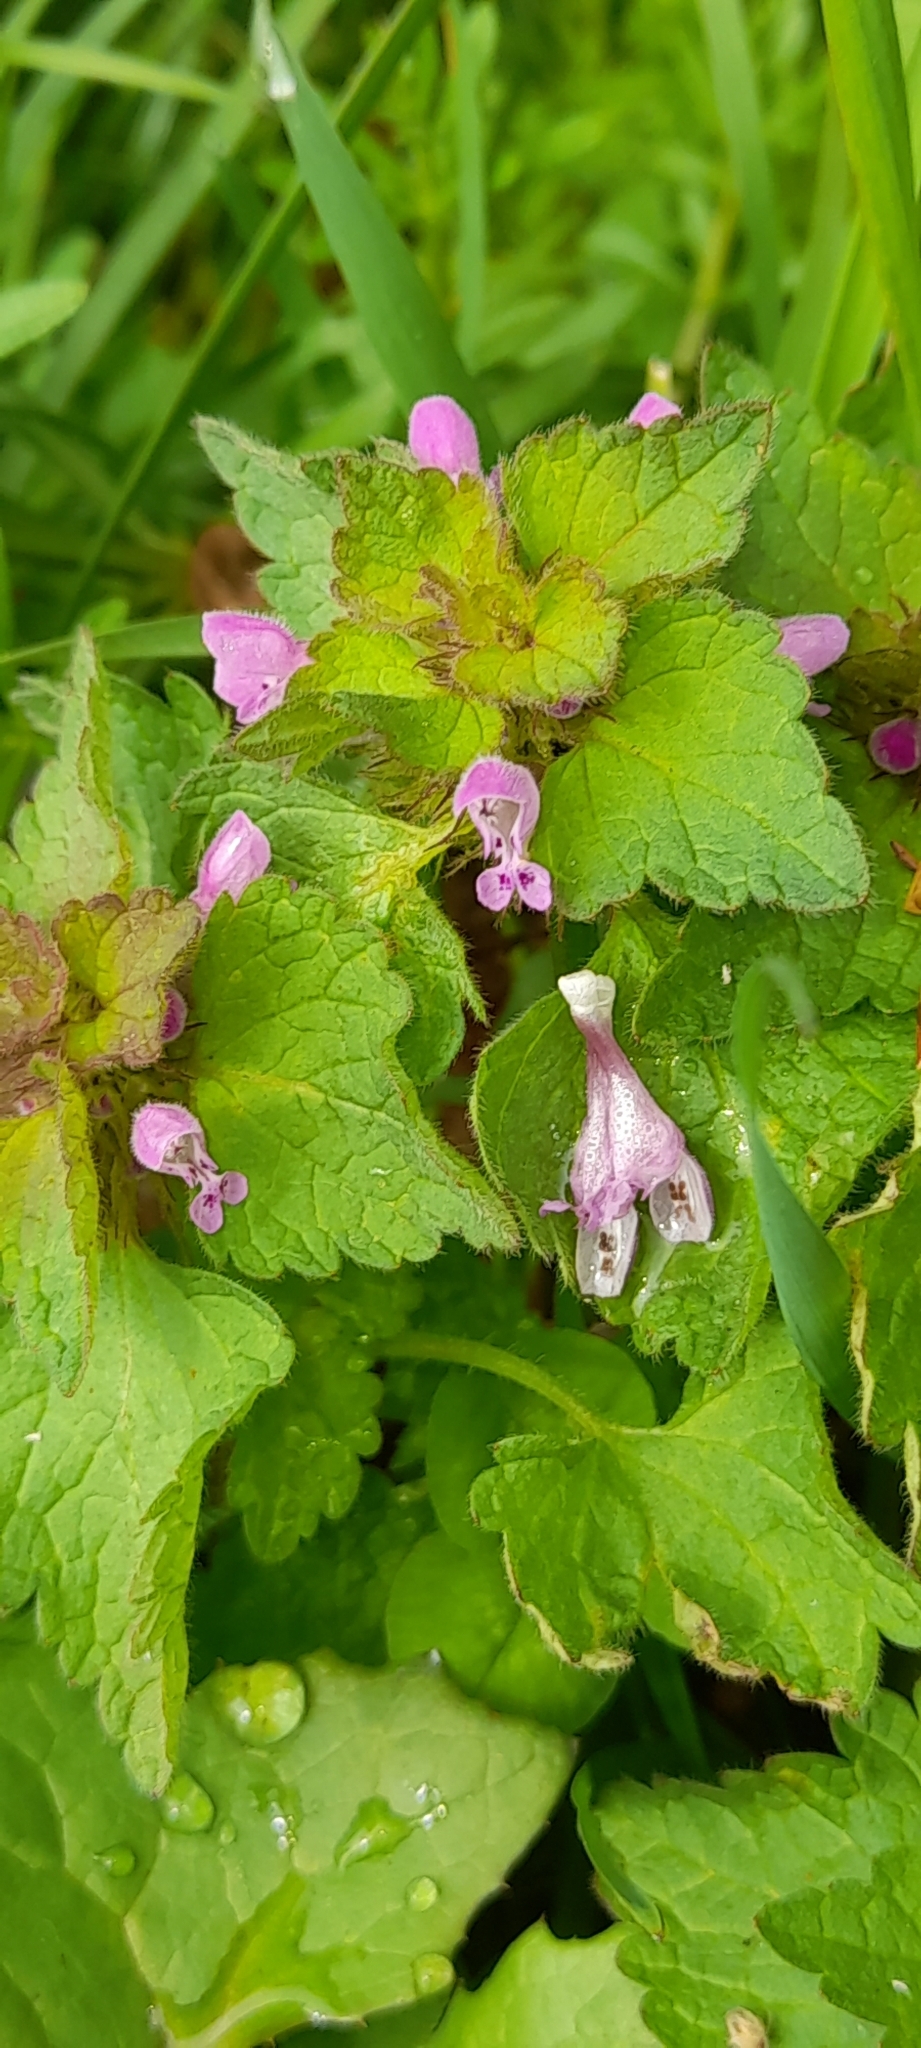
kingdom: Plantae
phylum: Tracheophyta
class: Magnoliopsida
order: Lamiales
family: Lamiaceae
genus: Lamium
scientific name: Lamium purpureum
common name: Red dead-nettle
